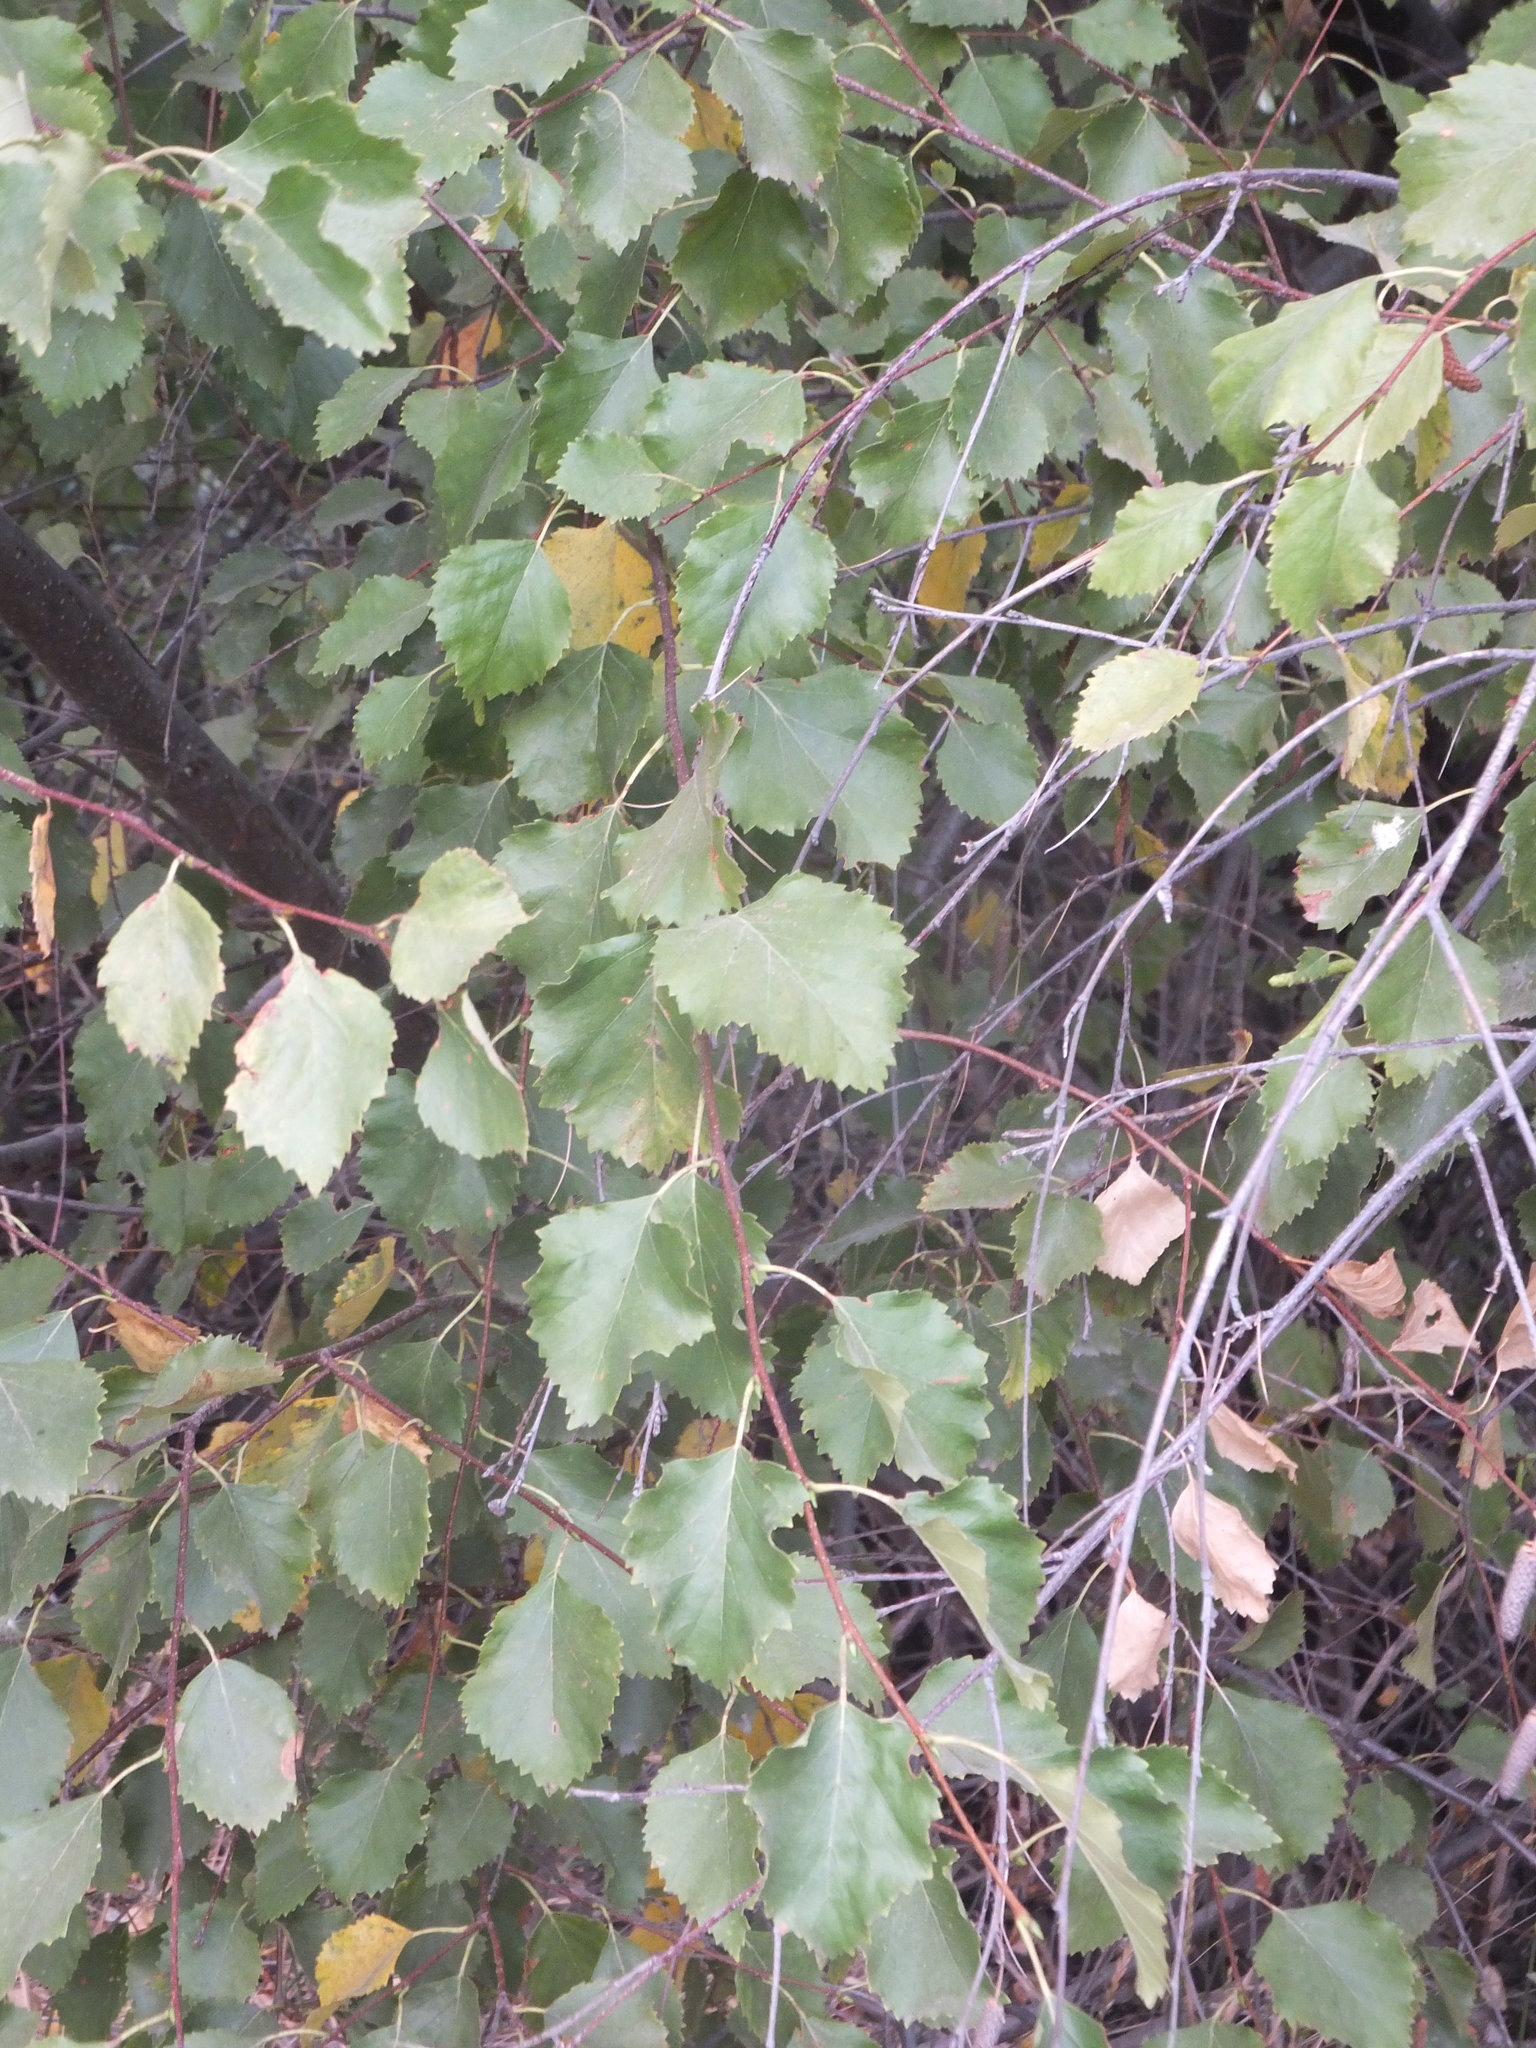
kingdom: Plantae
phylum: Tracheophyta
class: Magnoliopsida
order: Fagales
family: Betulaceae
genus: Betula
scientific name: Betula occidentalis
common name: River birch
